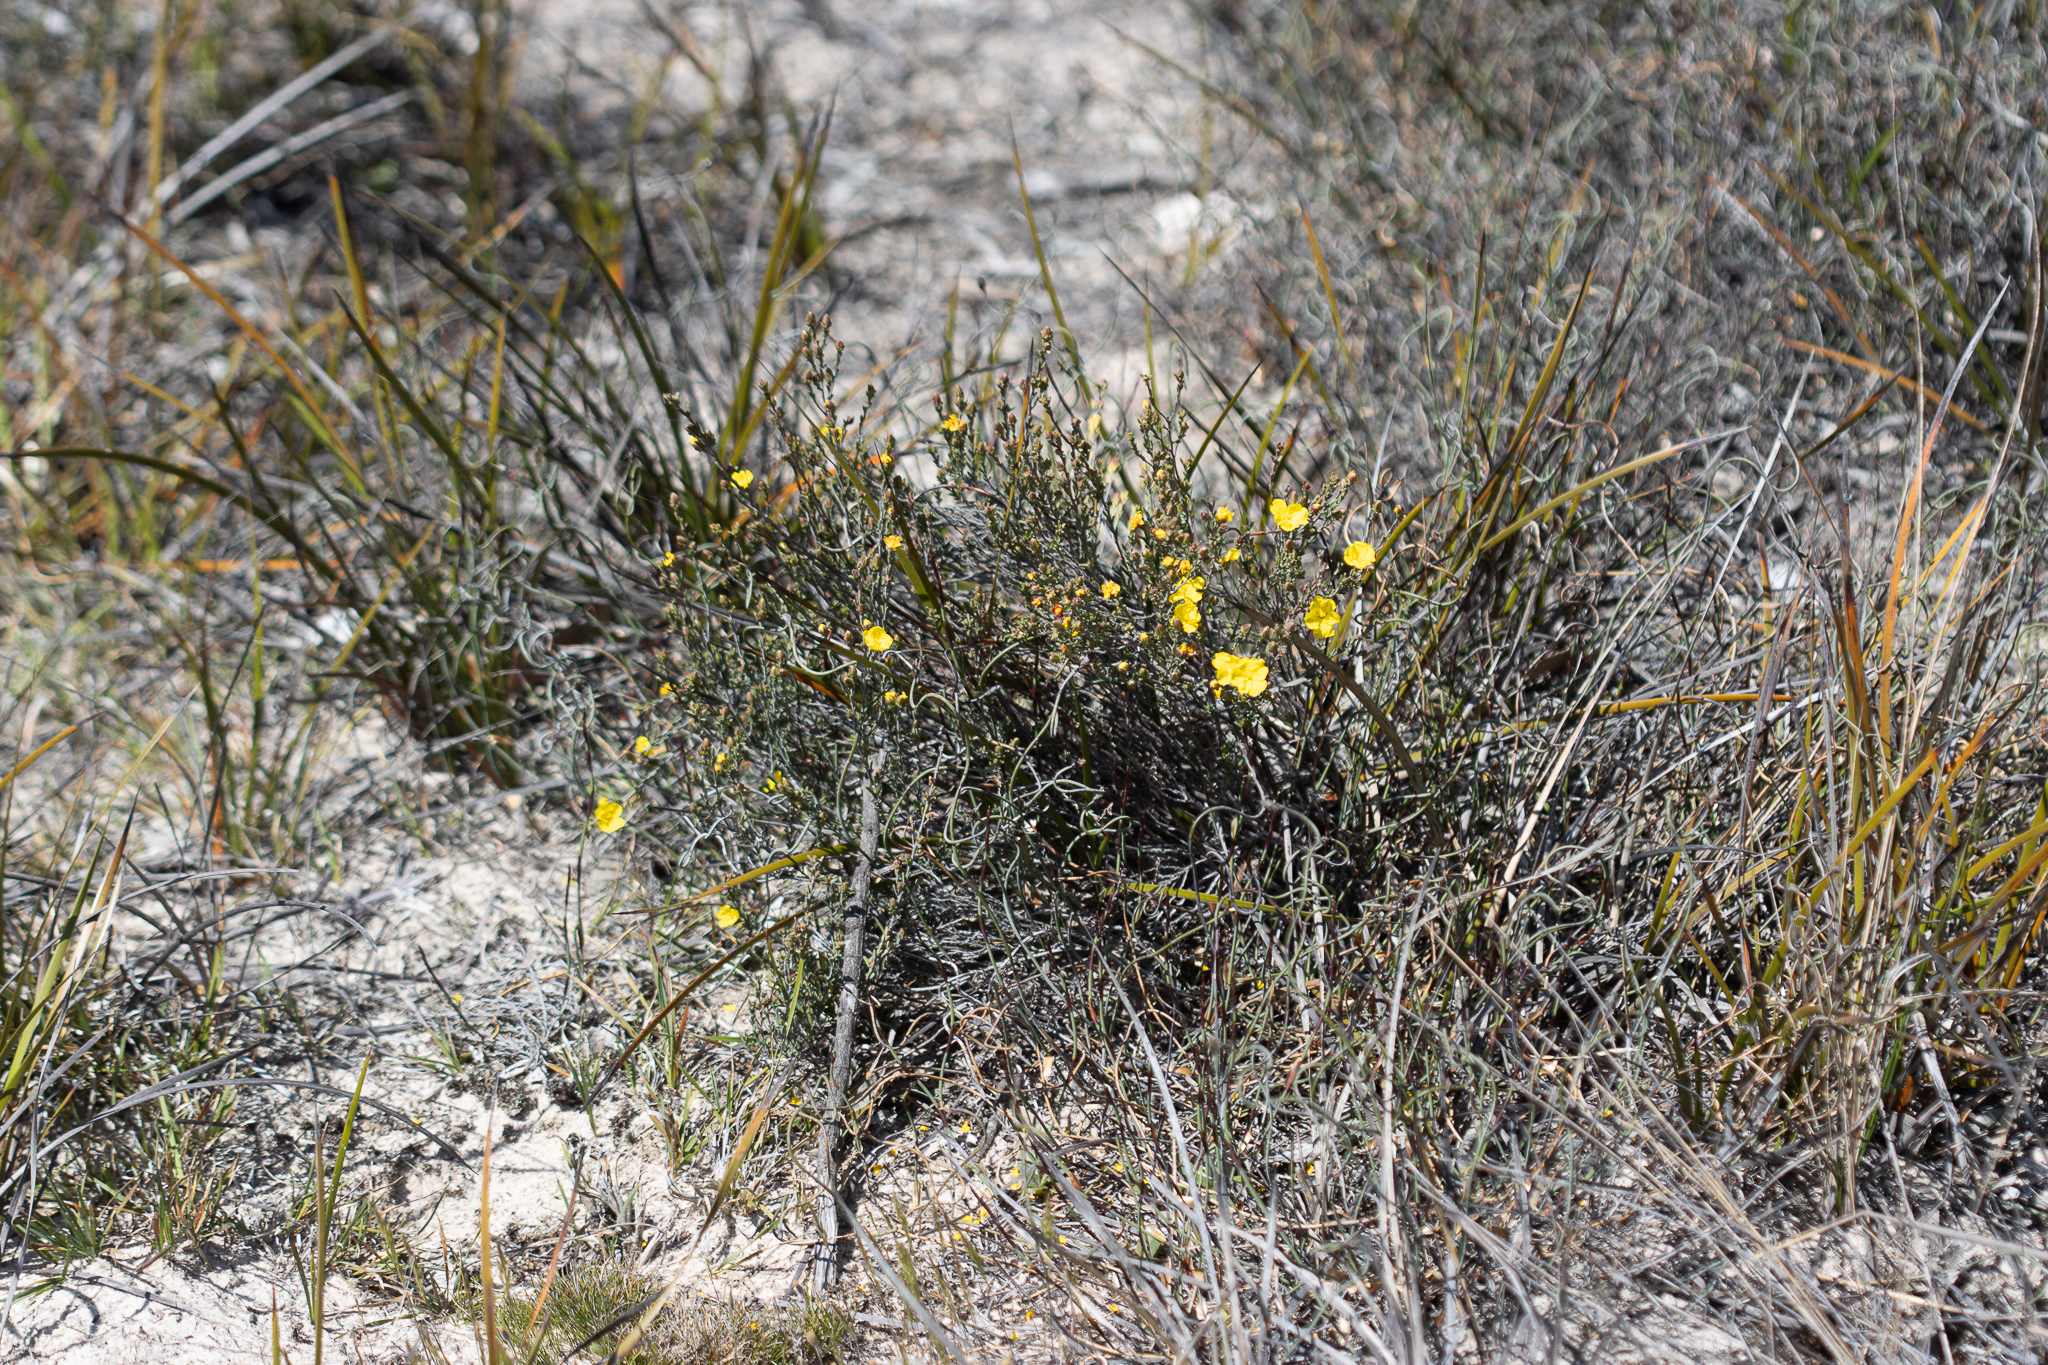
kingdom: Plantae
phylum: Tracheophyta
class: Magnoliopsida
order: Dilleniales
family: Dilleniaceae
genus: Hibbertia
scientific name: Hibbertia devitata
